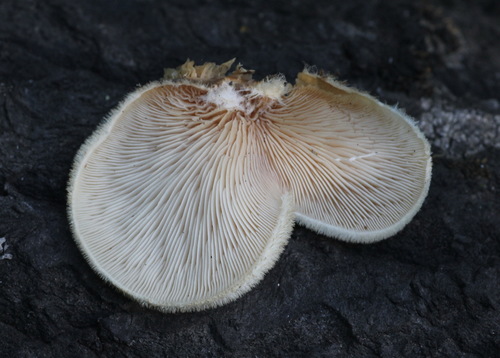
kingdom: Fungi
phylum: Basidiomycota
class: Agaricomycetes
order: Agaricales
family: Pleurotaceae
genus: Lignomyces
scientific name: Lignomyces vetlinianus
